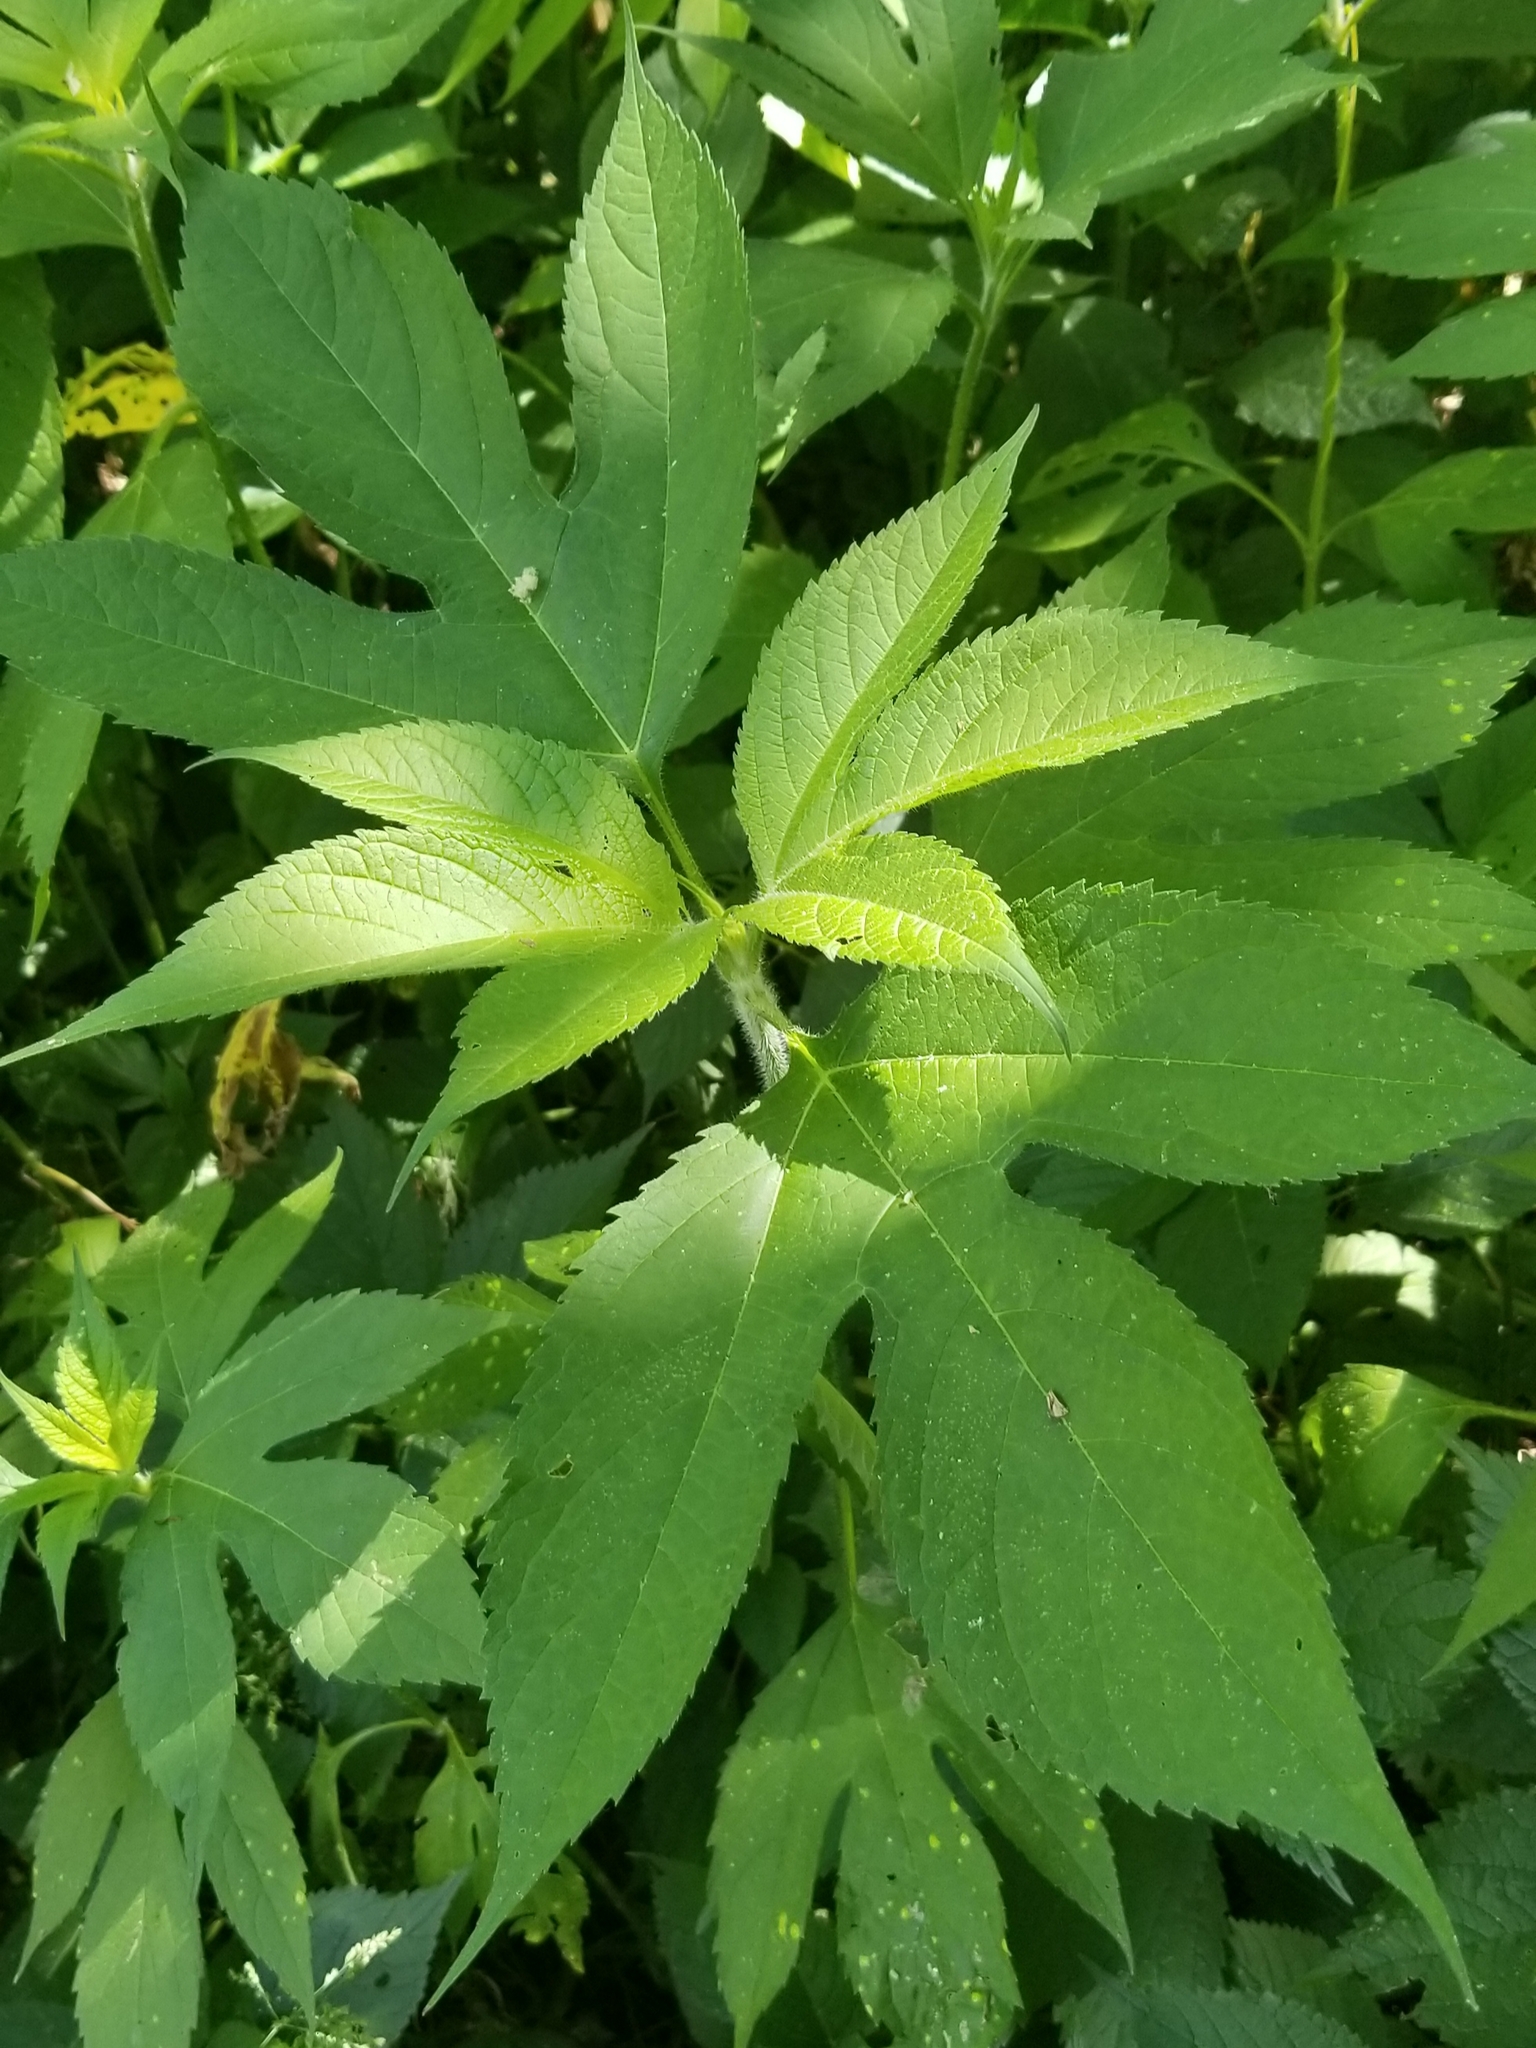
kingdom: Plantae
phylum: Tracheophyta
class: Magnoliopsida
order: Asterales
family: Asteraceae
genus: Ambrosia
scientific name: Ambrosia trifida
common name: Giant ragweed
